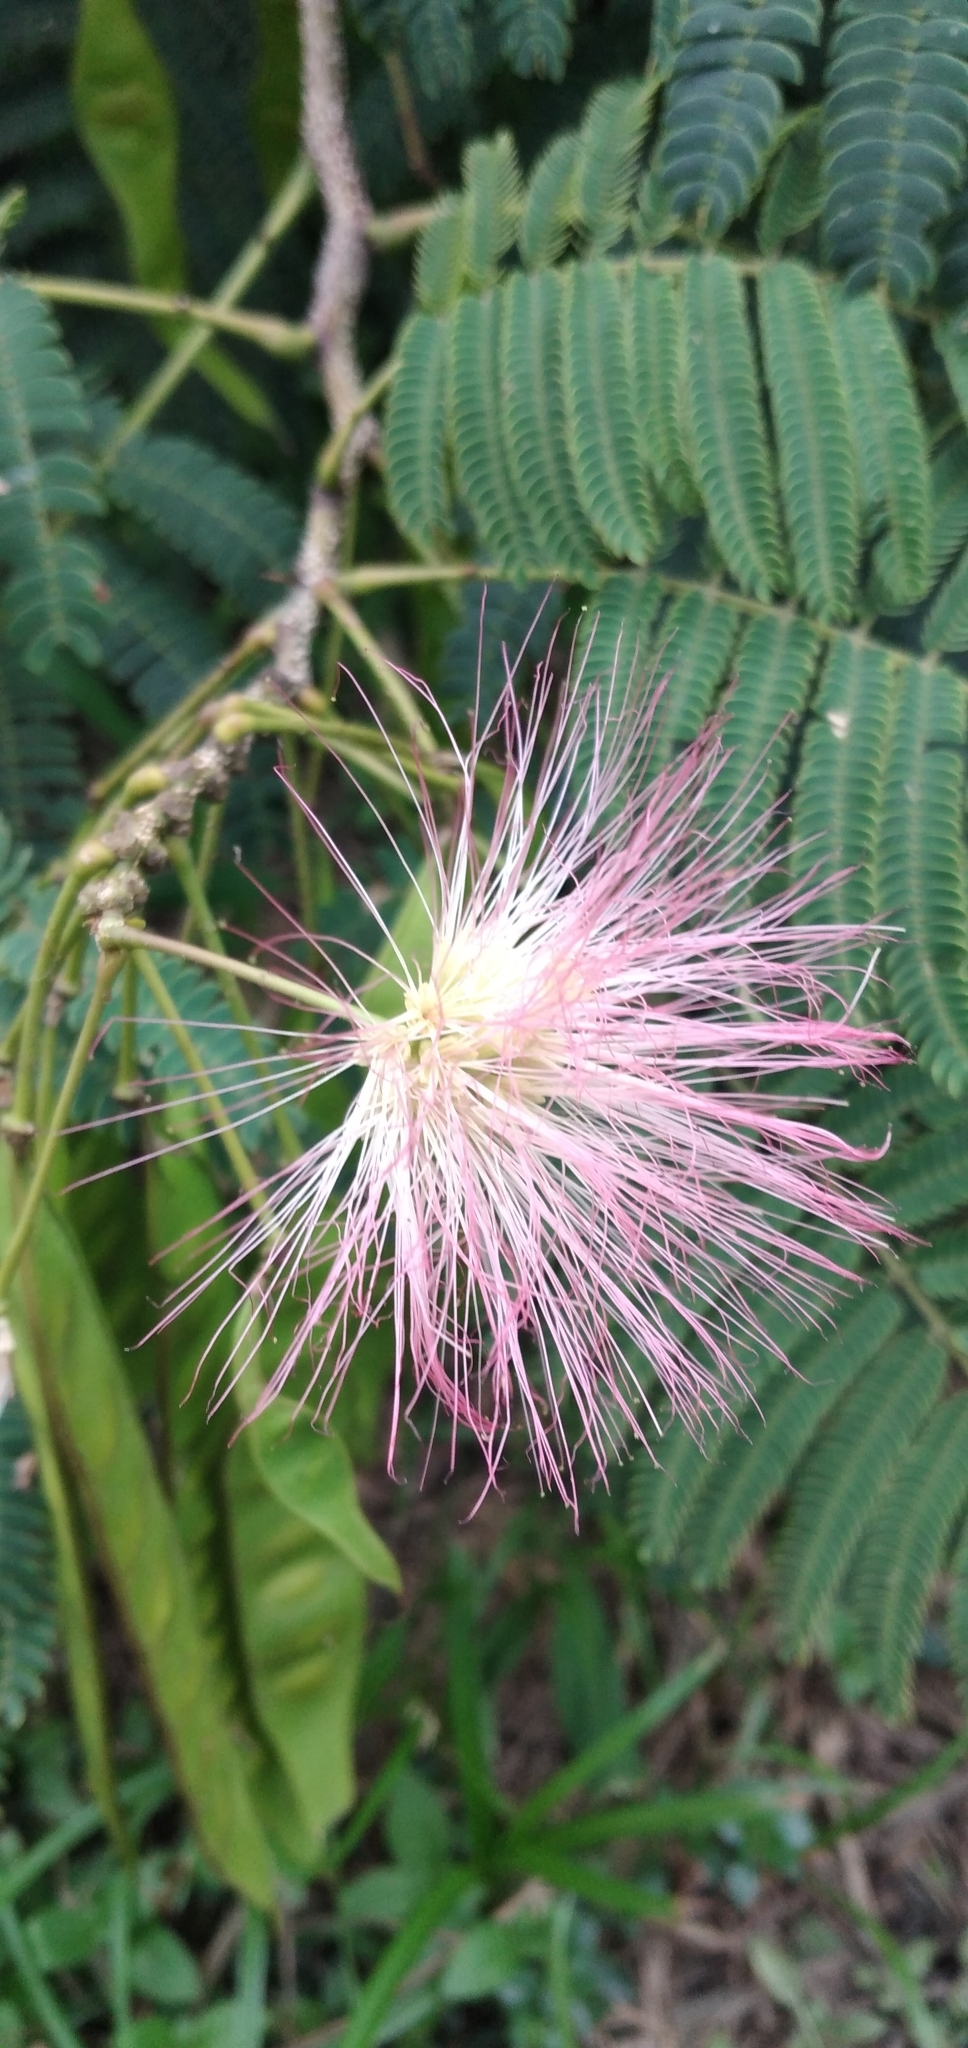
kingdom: Plantae
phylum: Tracheophyta
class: Magnoliopsida
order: Fabales
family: Fabaceae
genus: Albizia
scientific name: Albizia julibrissin
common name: Silktree
